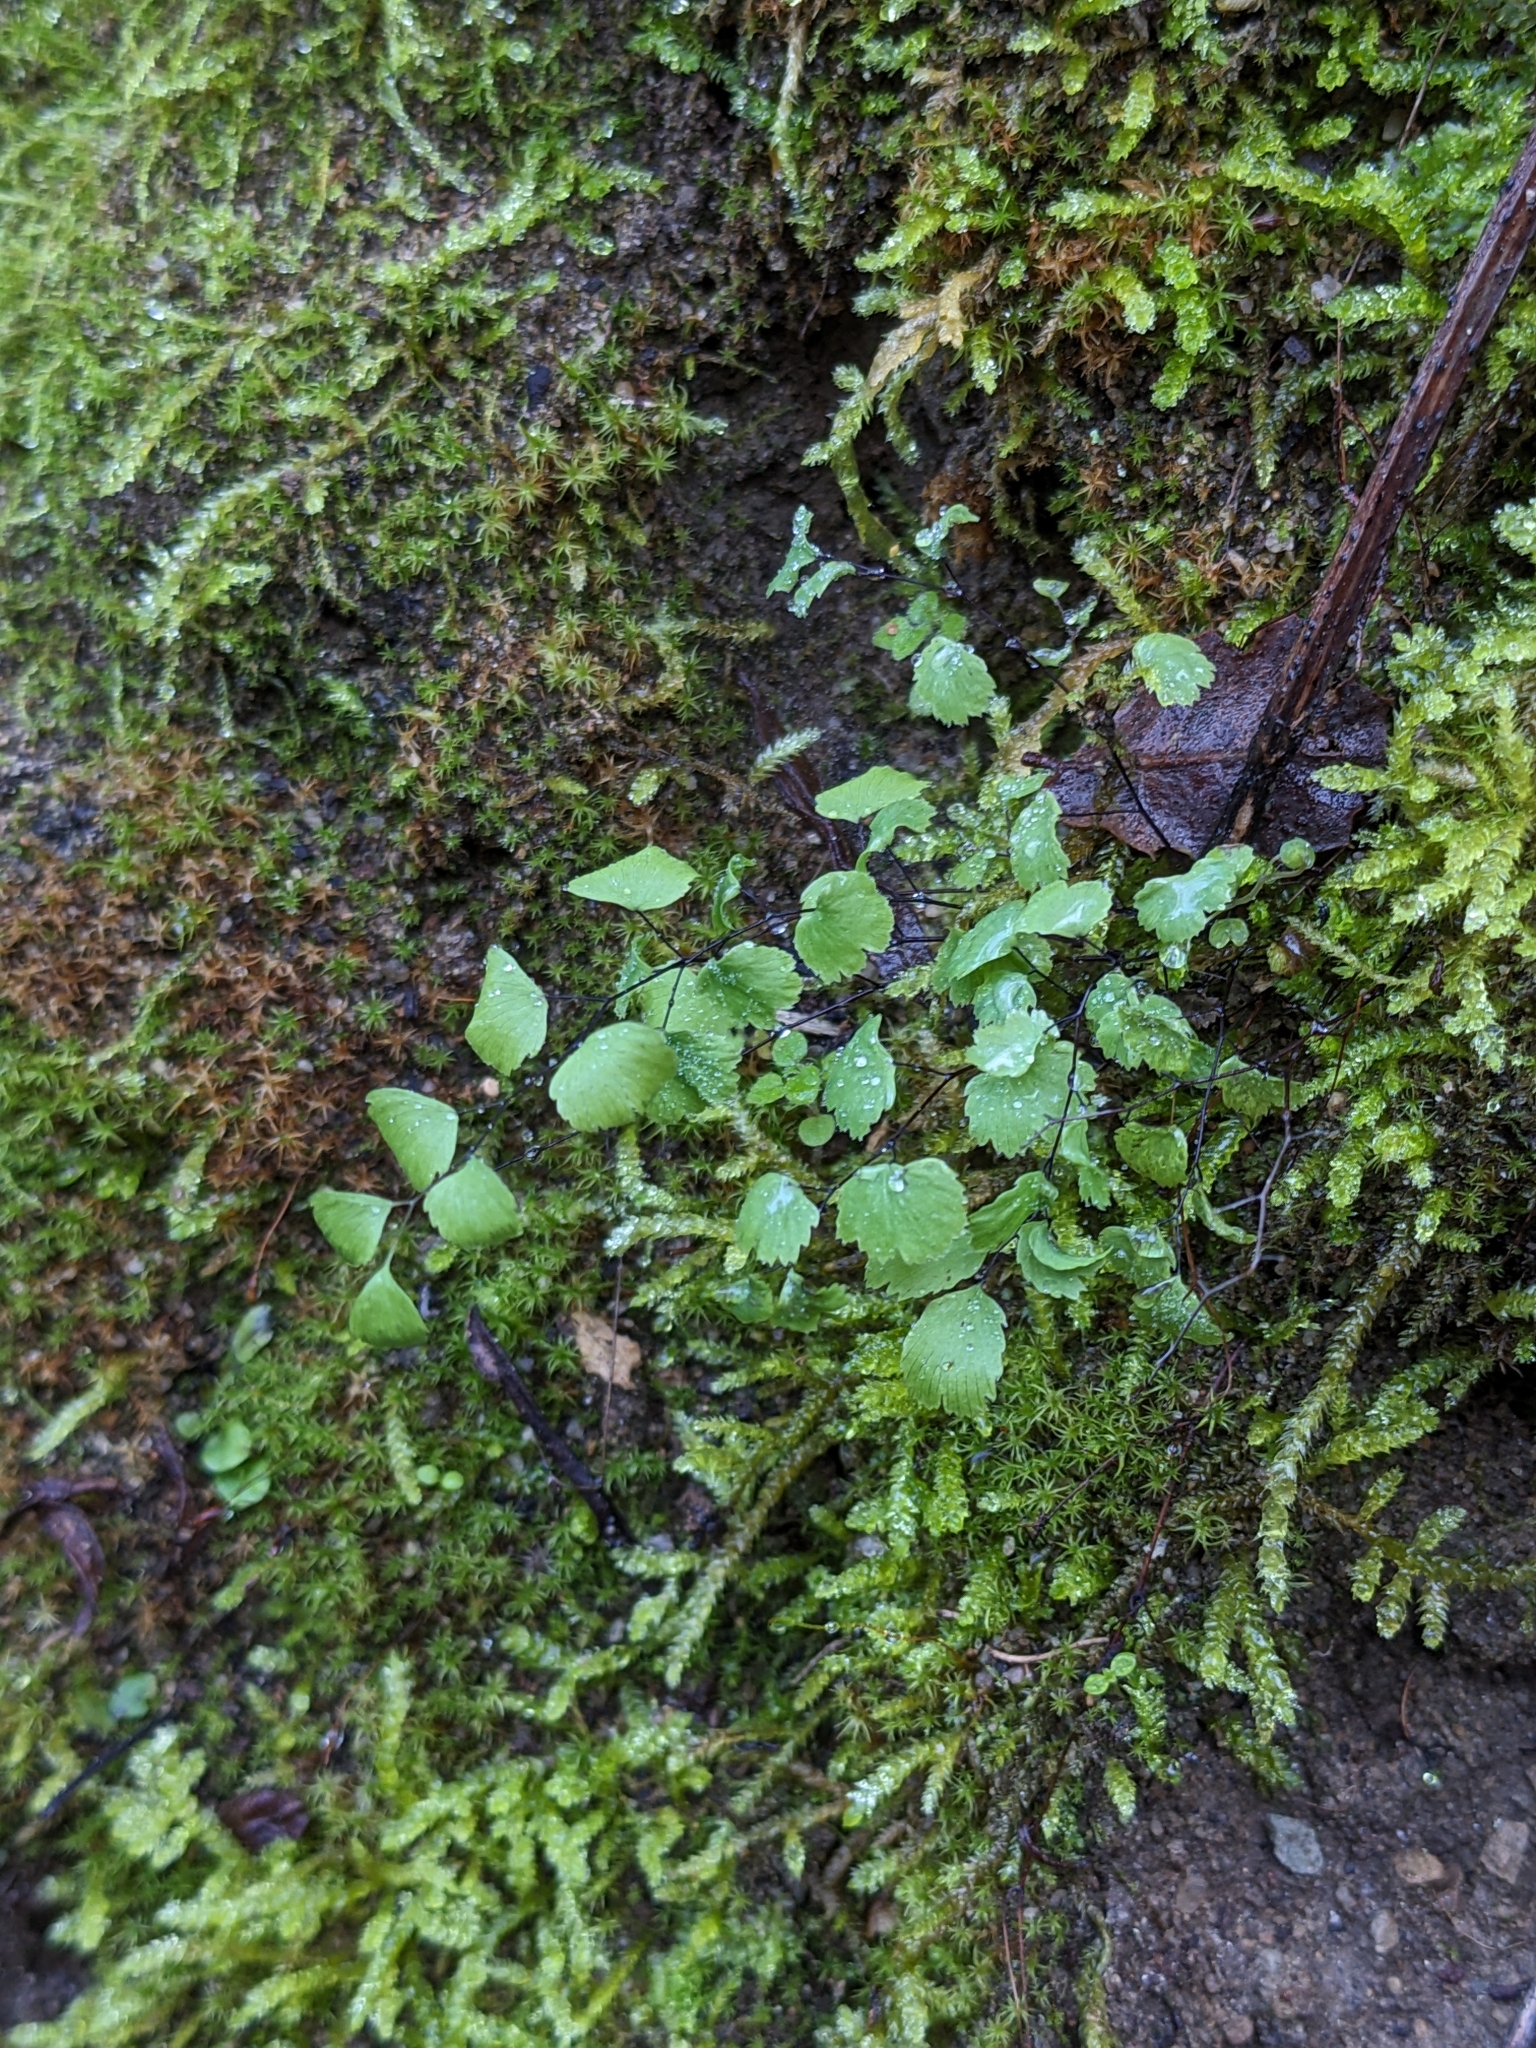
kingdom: Plantae
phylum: Tracheophyta
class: Polypodiopsida
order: Polypodiales
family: Pteridaceae
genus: Adiantum
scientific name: Adiantum jordanii
